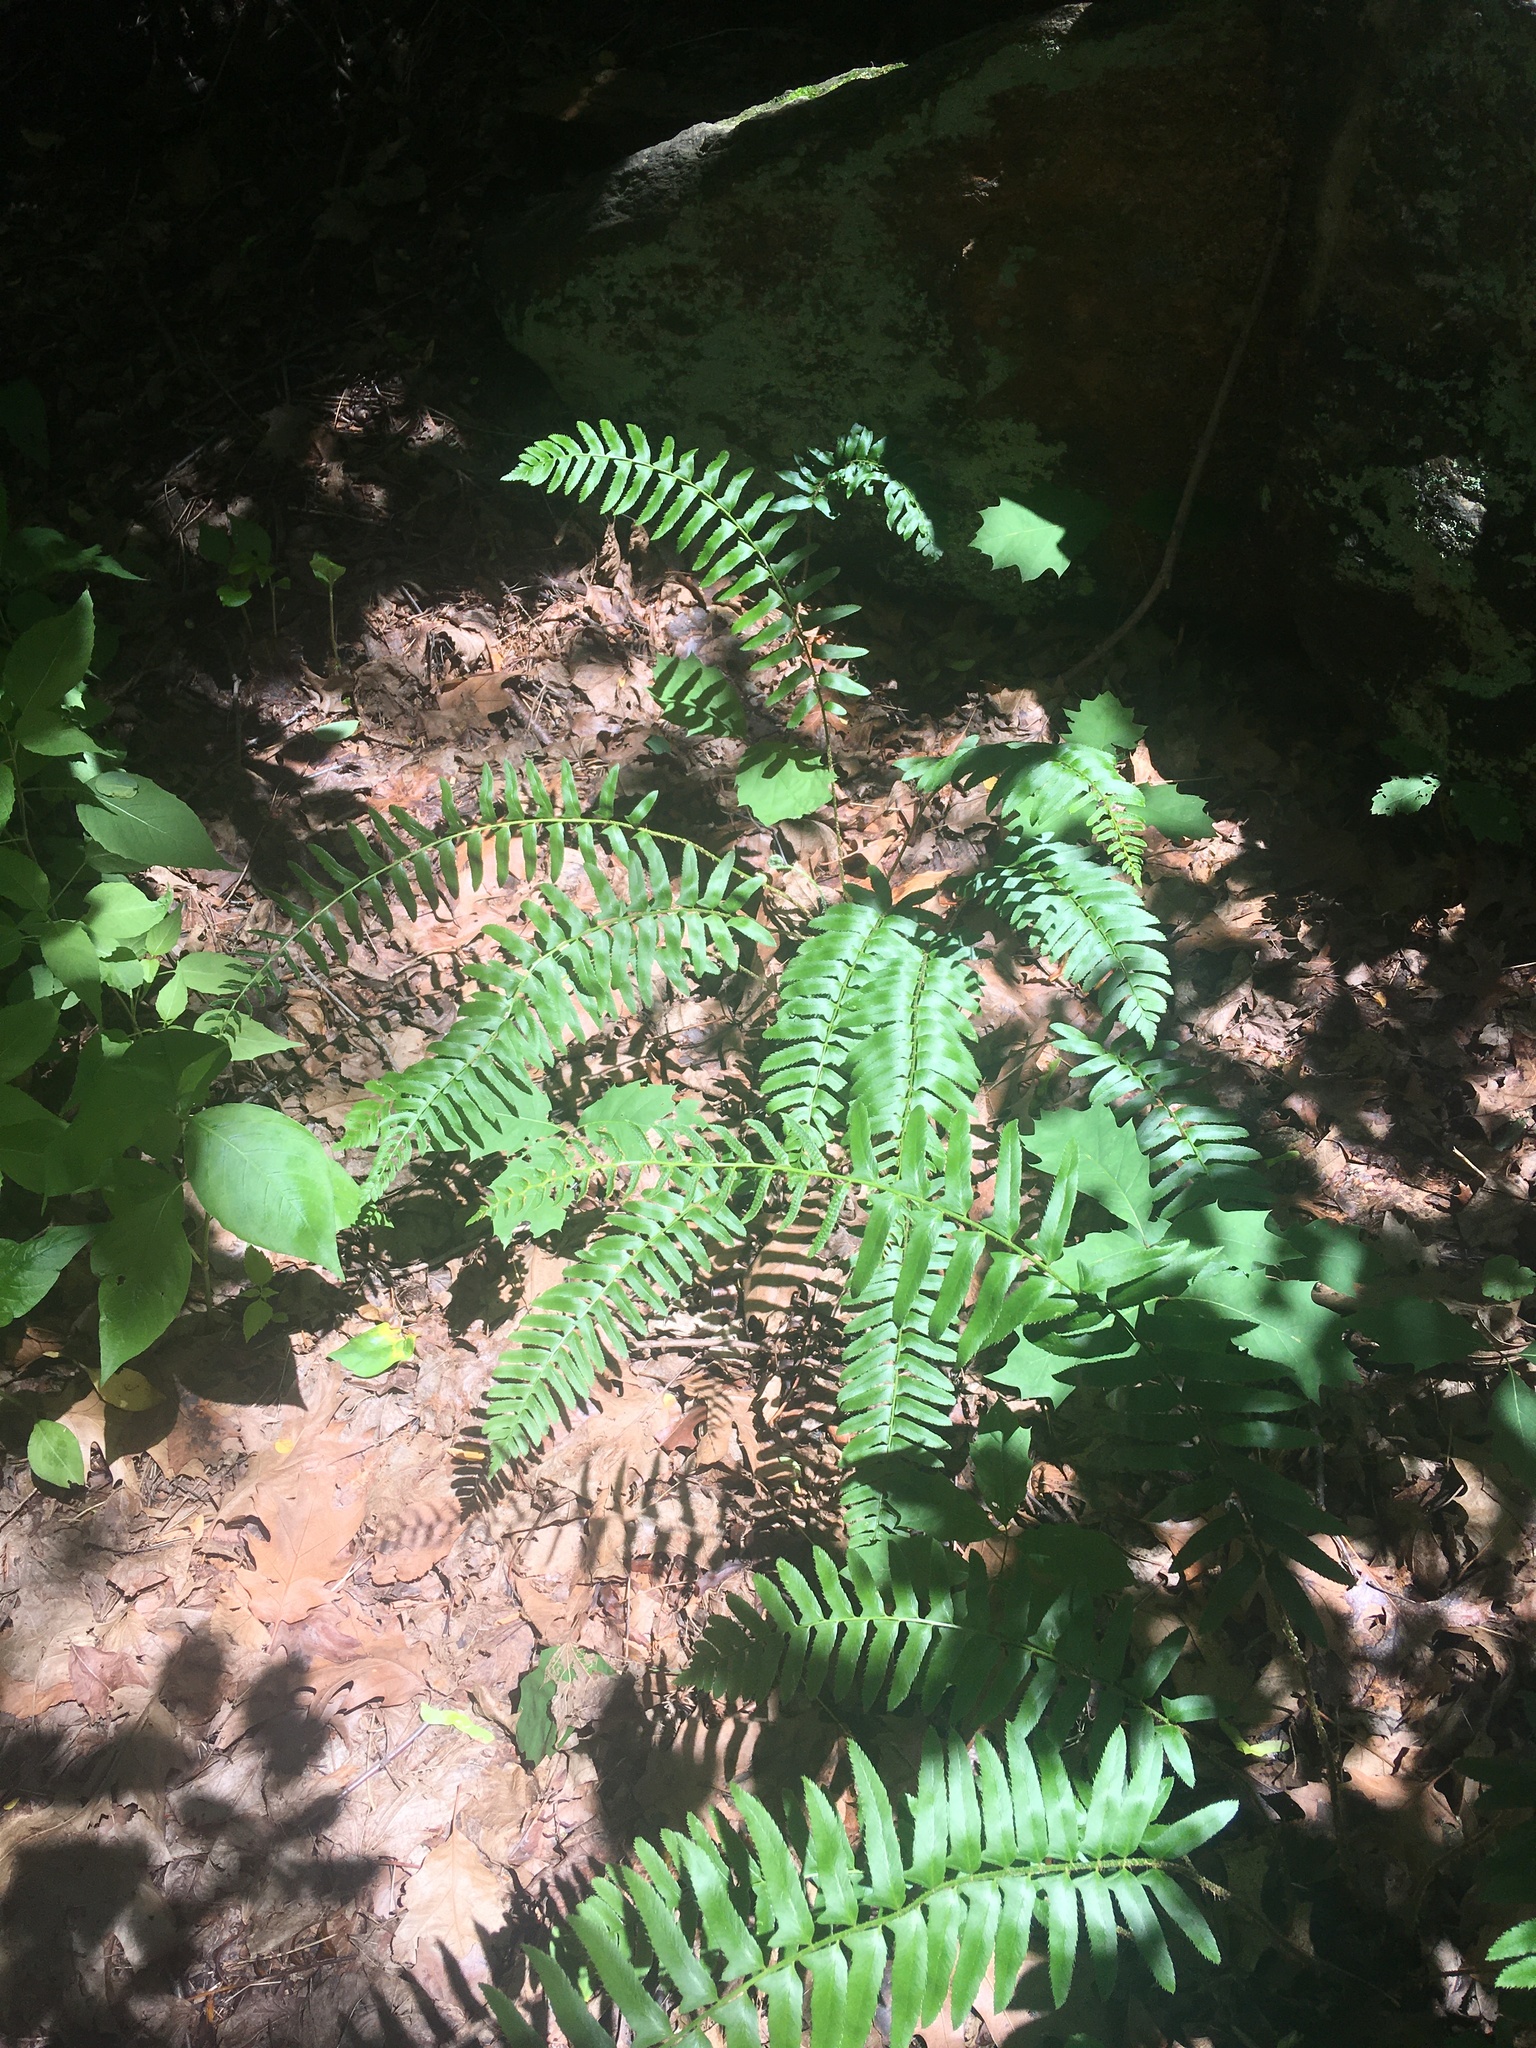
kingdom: Plantae
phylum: Tracheophyta
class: Polypodiopsida
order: Polypodiales
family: Dryopteridaceae
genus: Polystichum
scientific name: Polystichum acrostichoides
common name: Christmas fern
